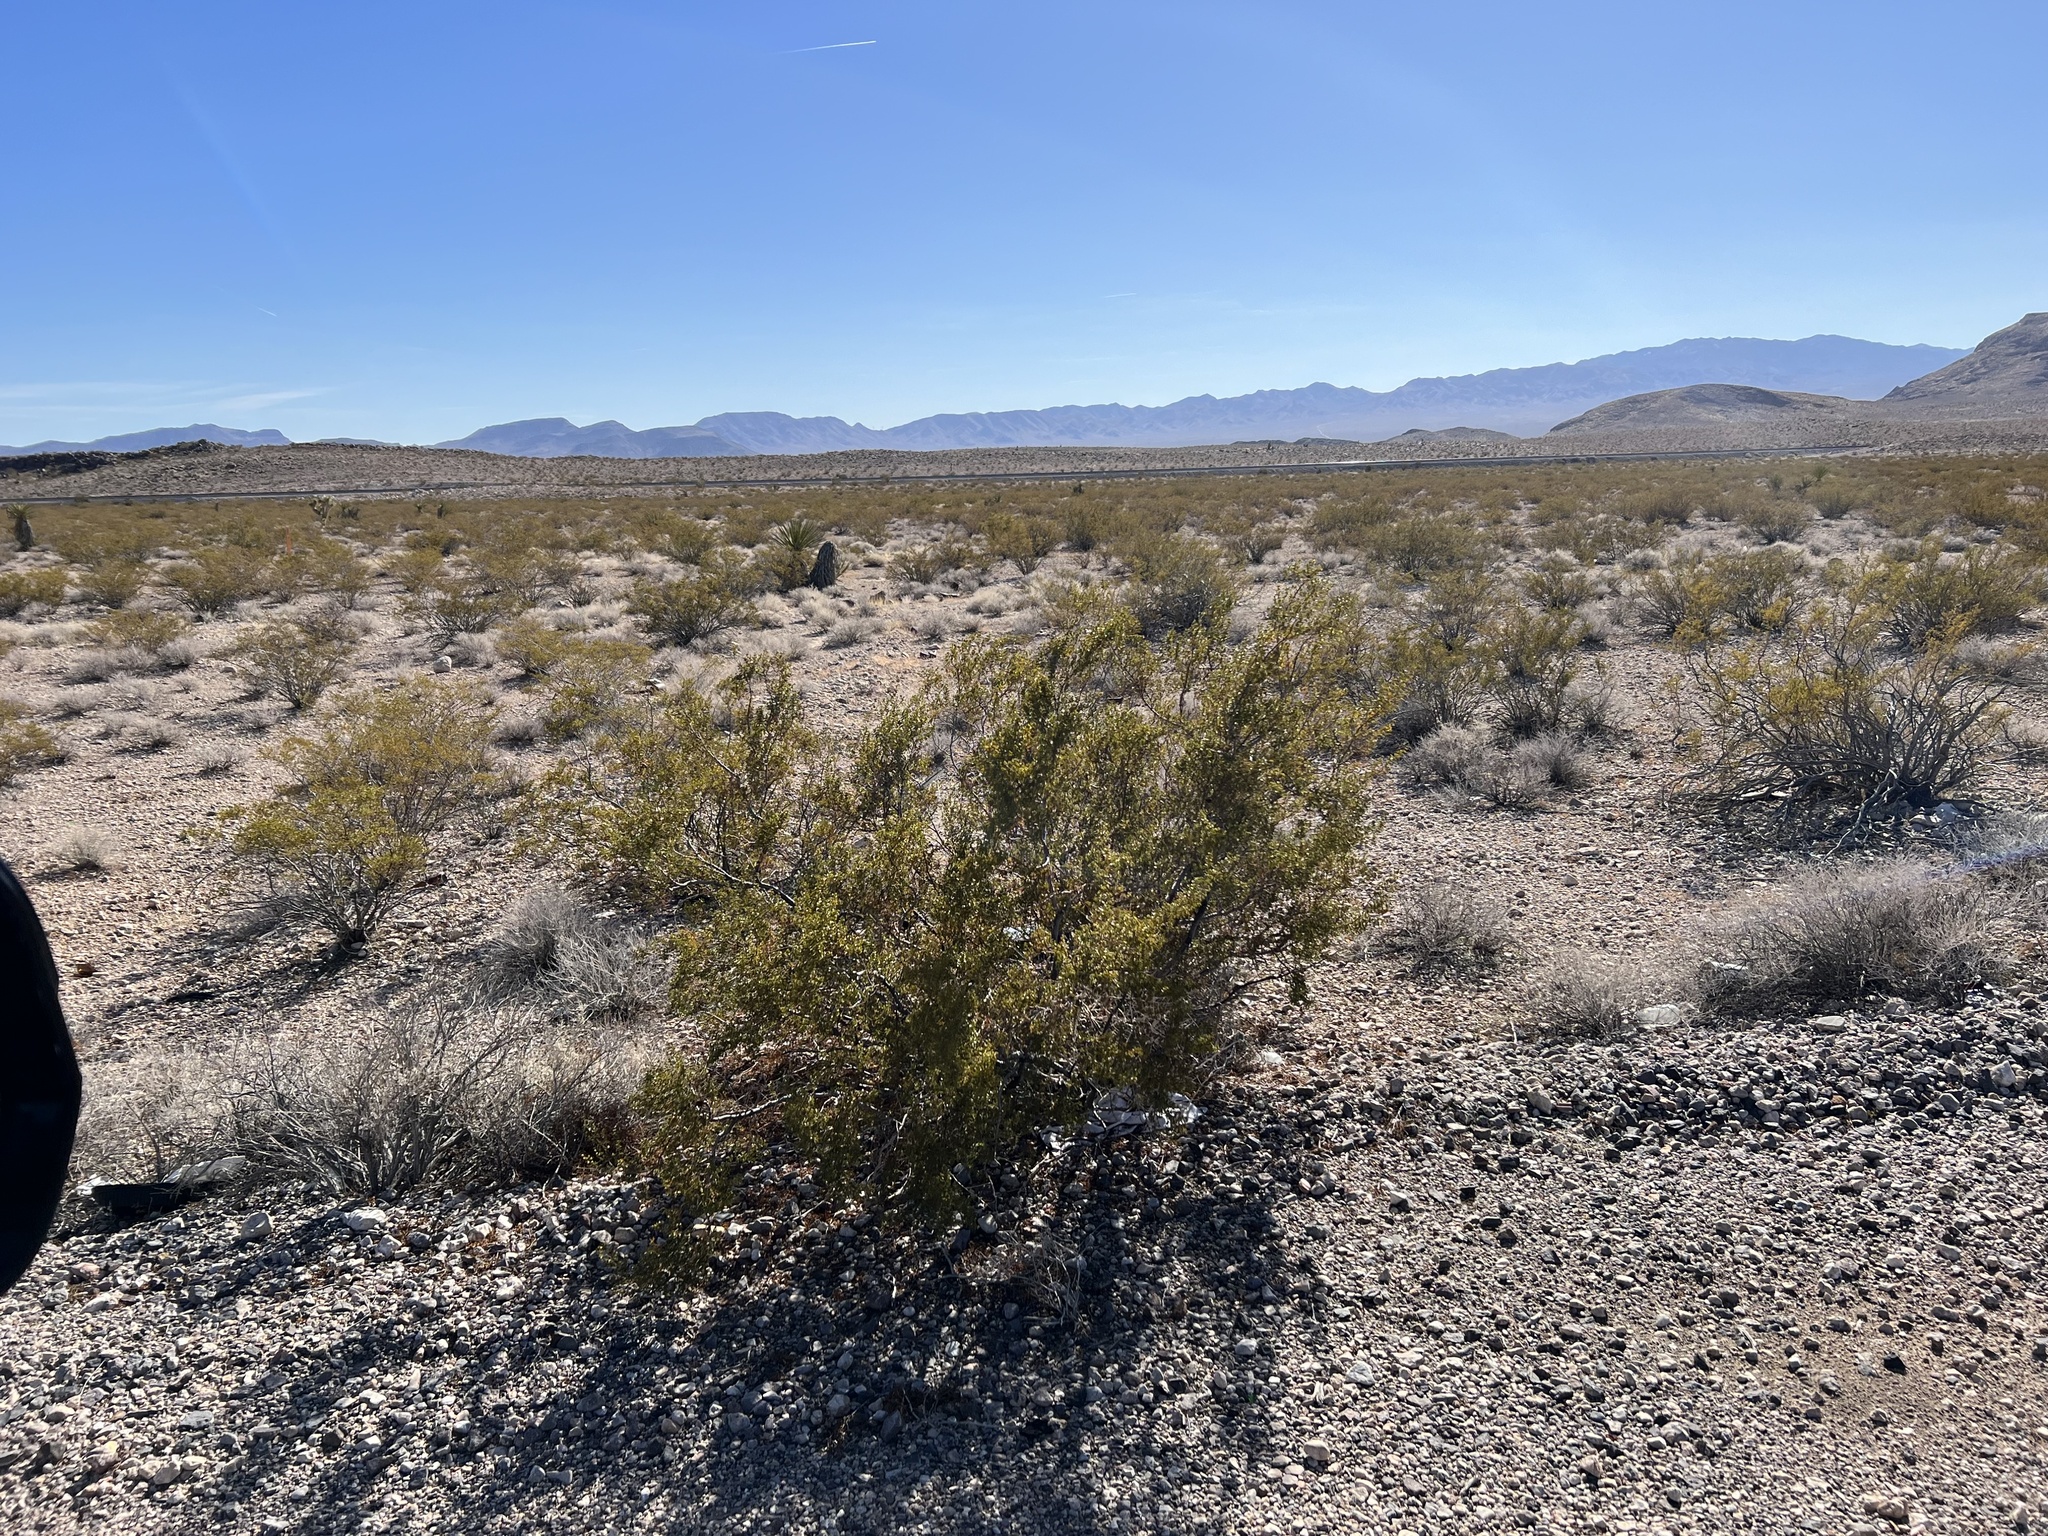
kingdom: Plantae
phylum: Tracheophyta
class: Magnoliopsida
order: Zygophyllales
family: Zygophyllaceae
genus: Larrea
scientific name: Larrea tridentata
